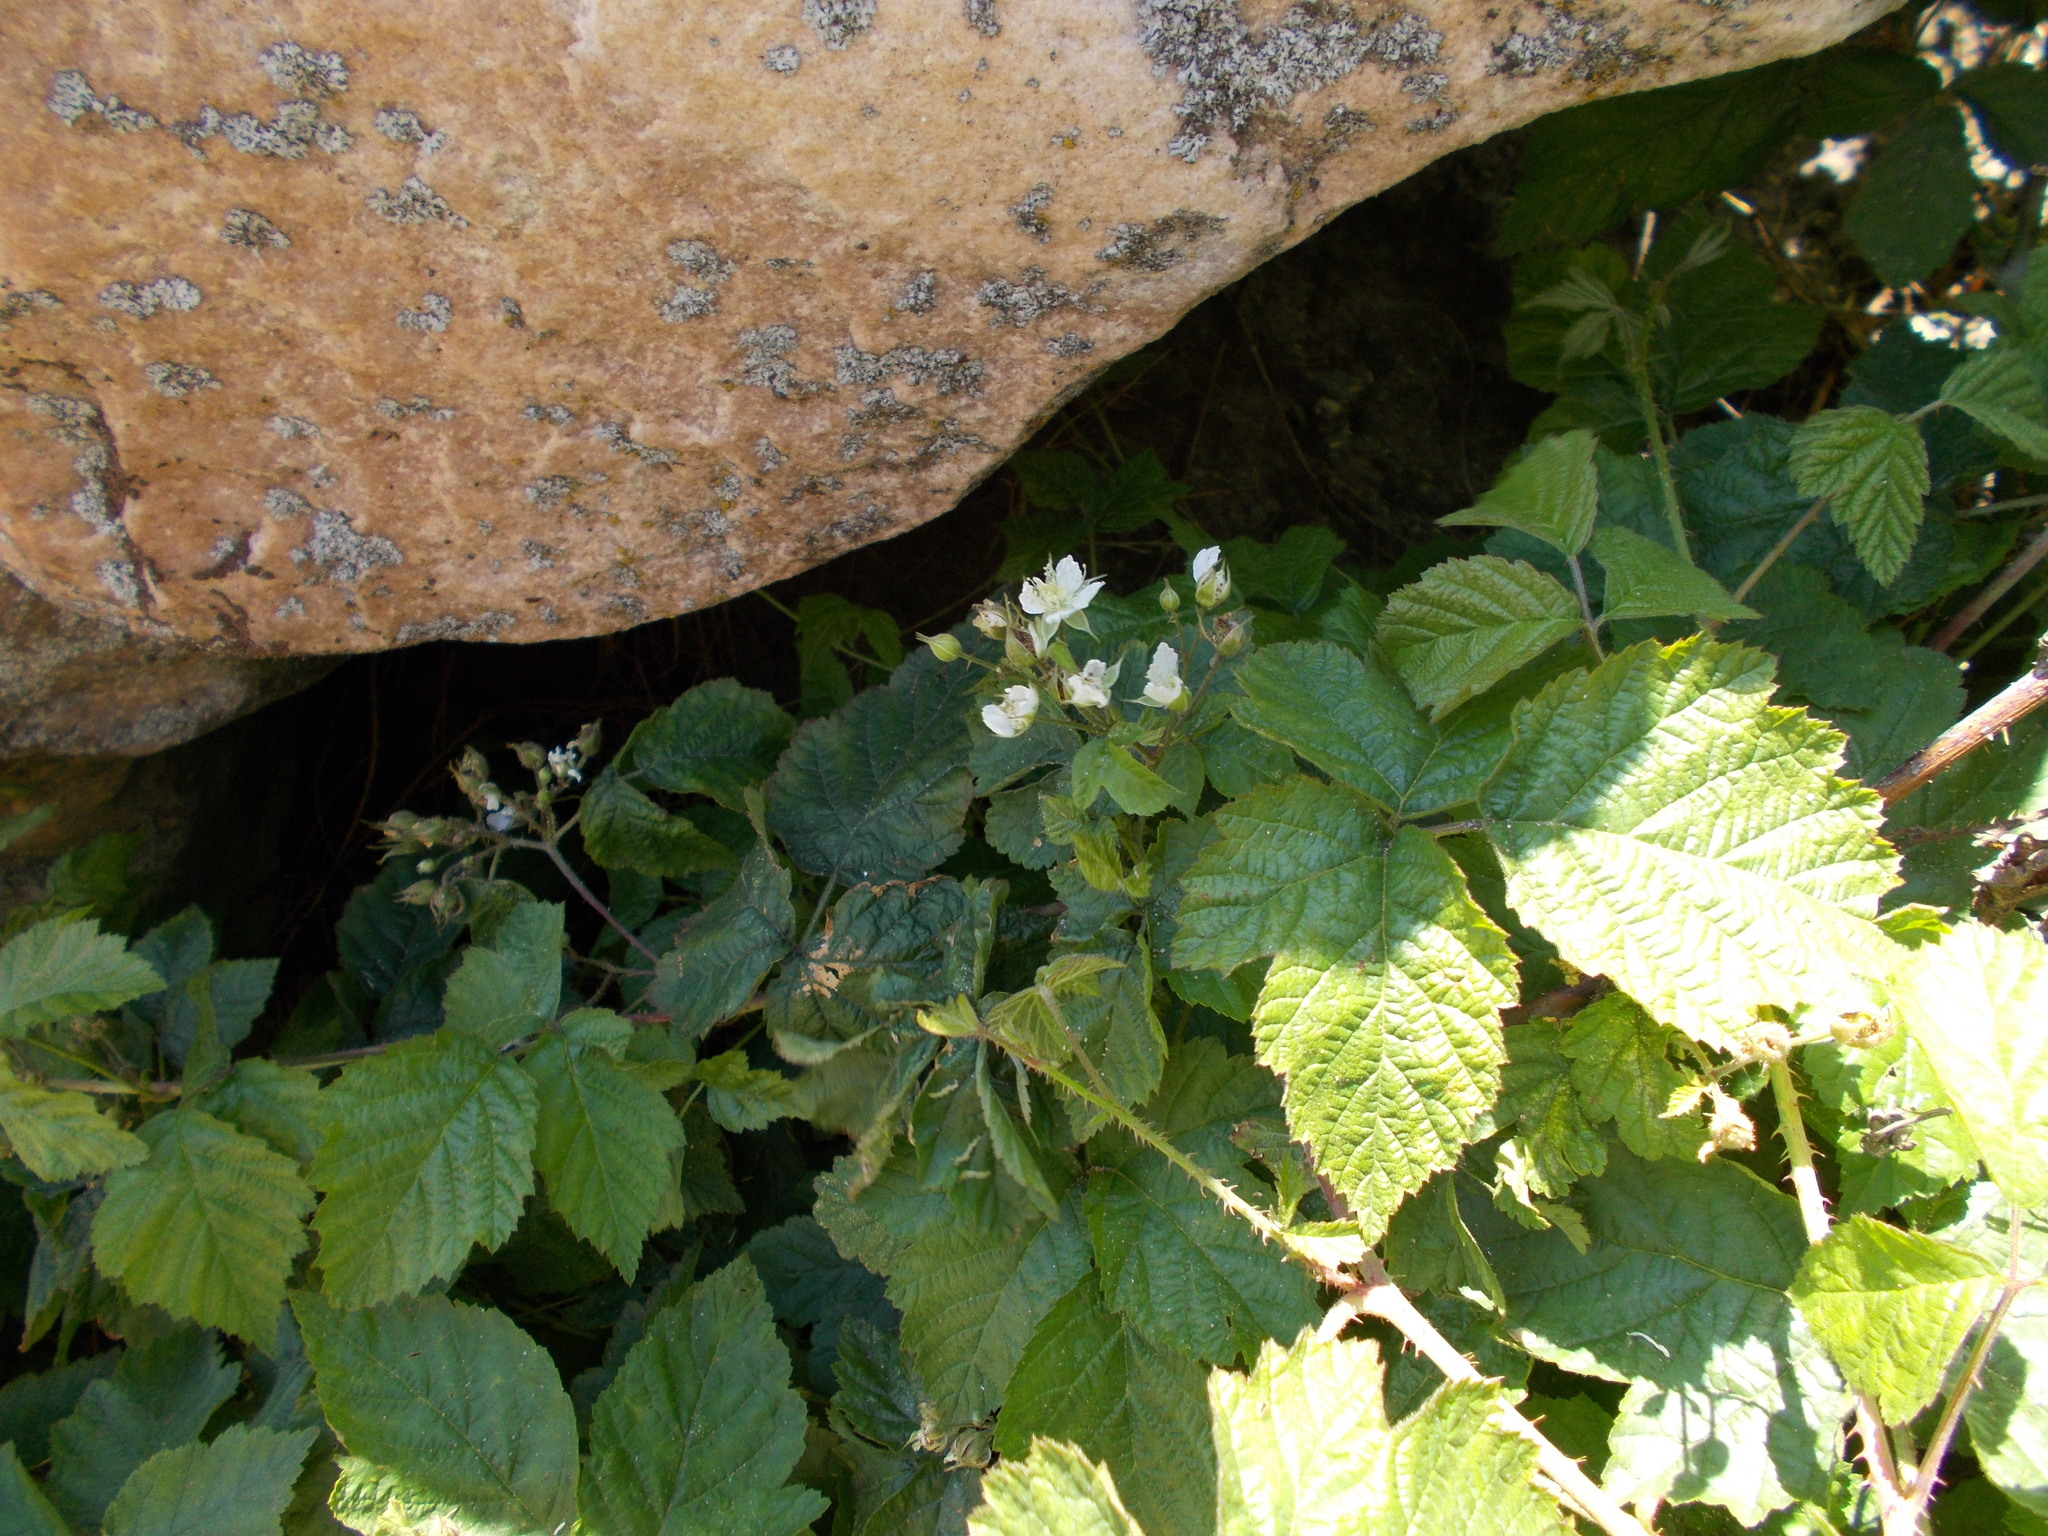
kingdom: Plantae
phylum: Tracheophyta
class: Magnoliopsida
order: Rosales
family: Rosaceae
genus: Rubus
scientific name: Rubus caesius
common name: Dewberry
